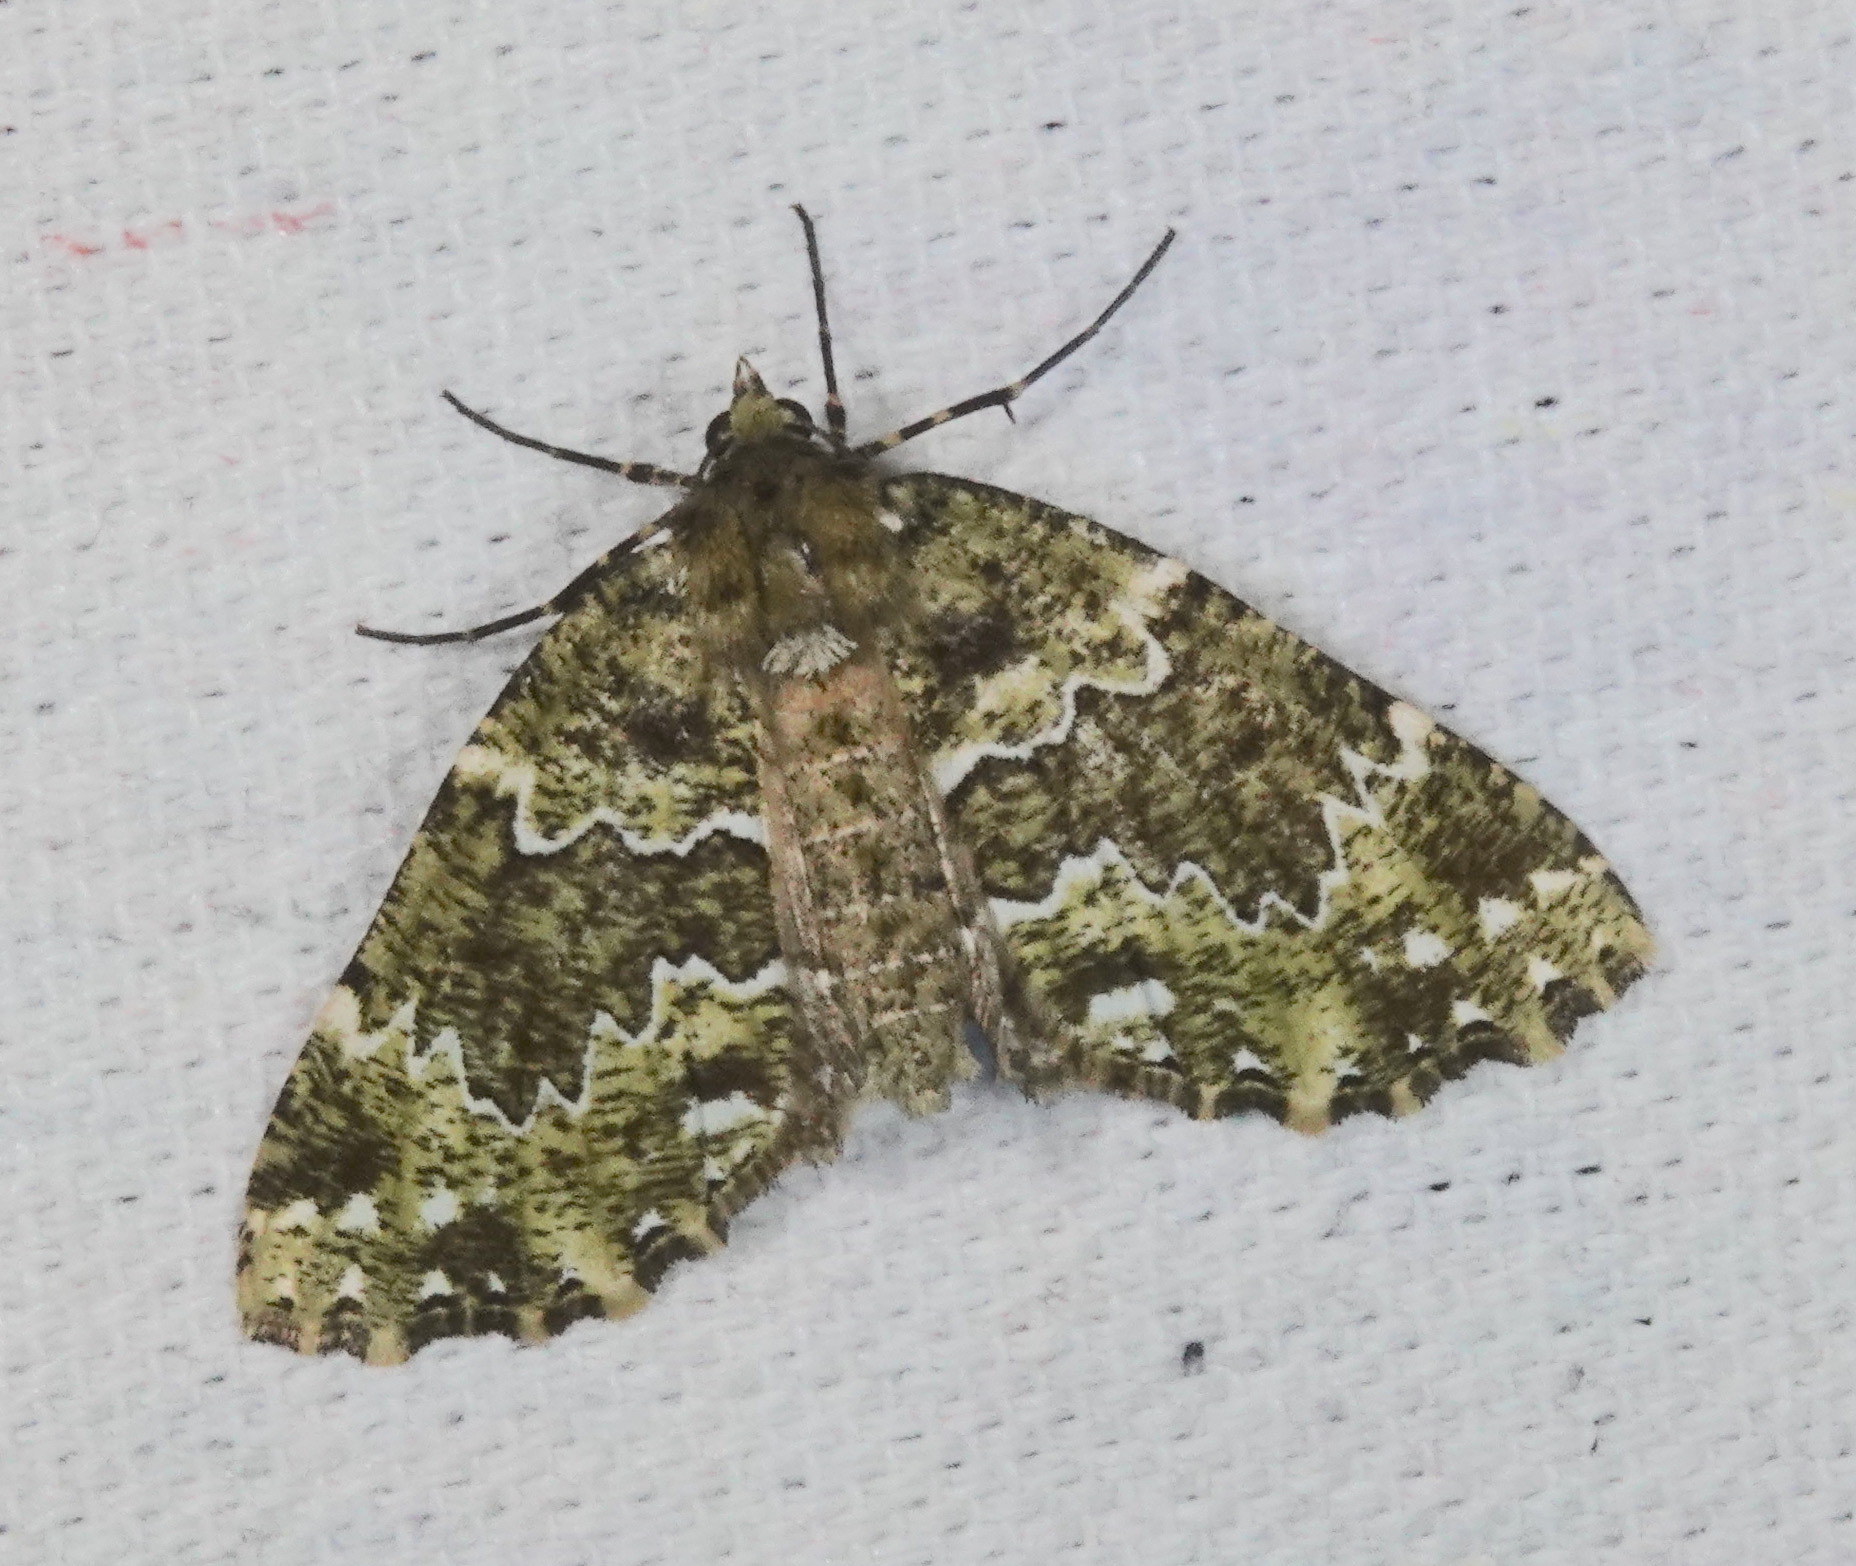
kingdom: Animalia
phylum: Arthropoda
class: Insecta
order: Lepidoptera
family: Geometridae
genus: Cidariophanes
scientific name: Cidariophanes brigitta
